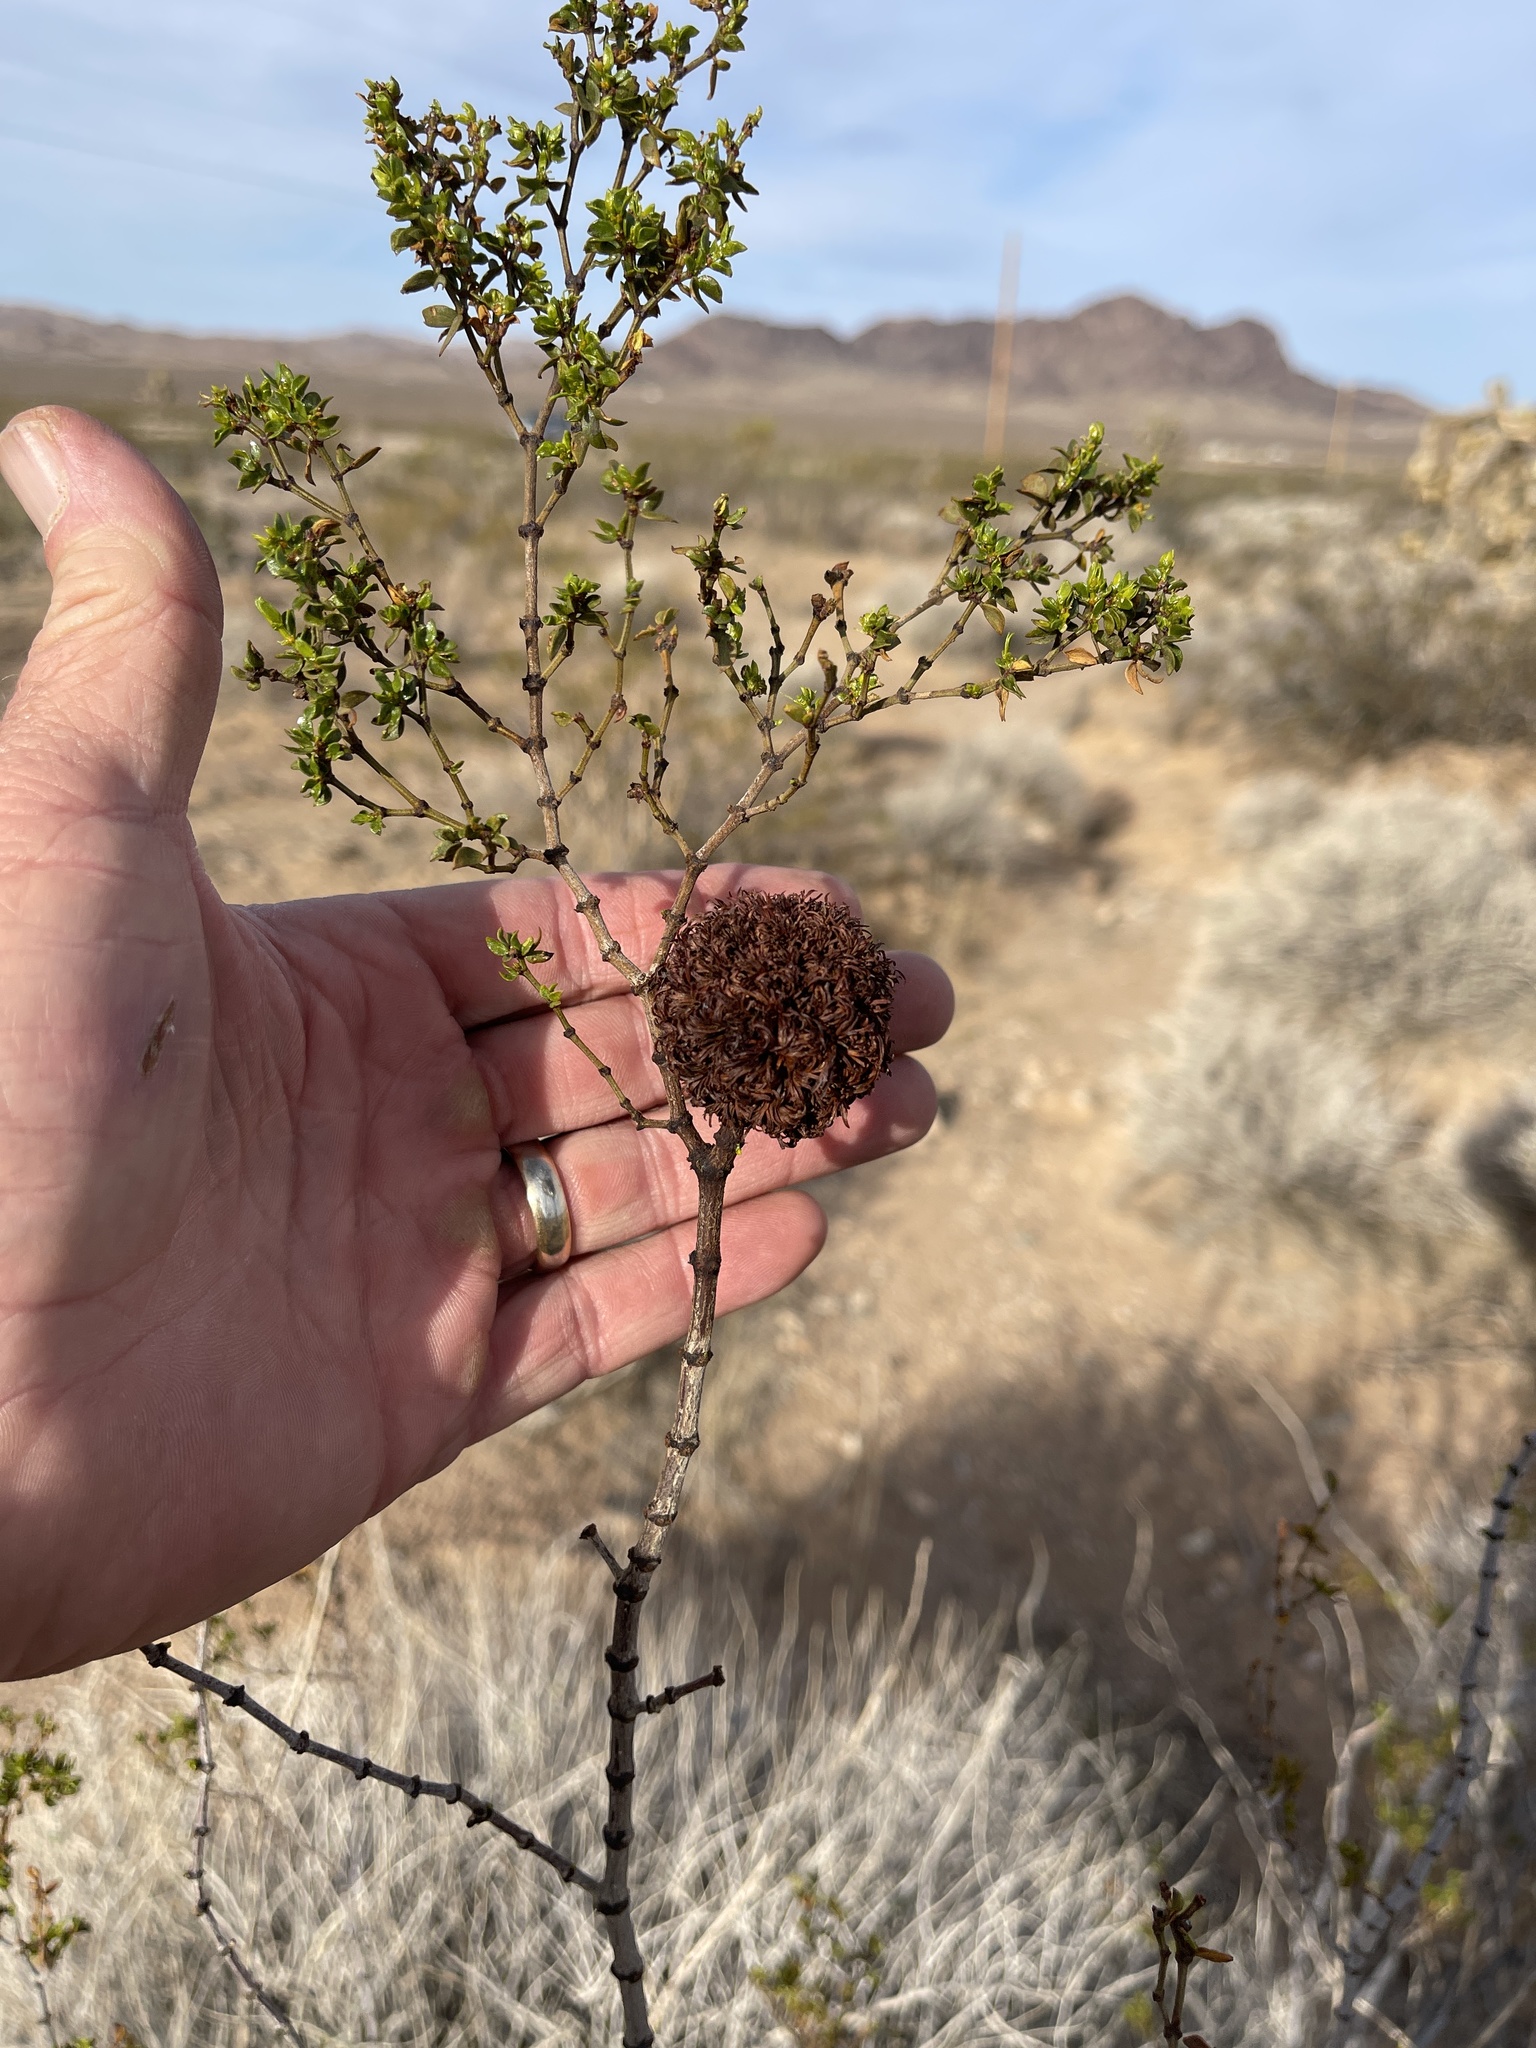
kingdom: Animalia
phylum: Arthropoda
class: Insecta
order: Diptera
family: Cecidomyiidae
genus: Asphondylia
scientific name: Asphondylia auripila
